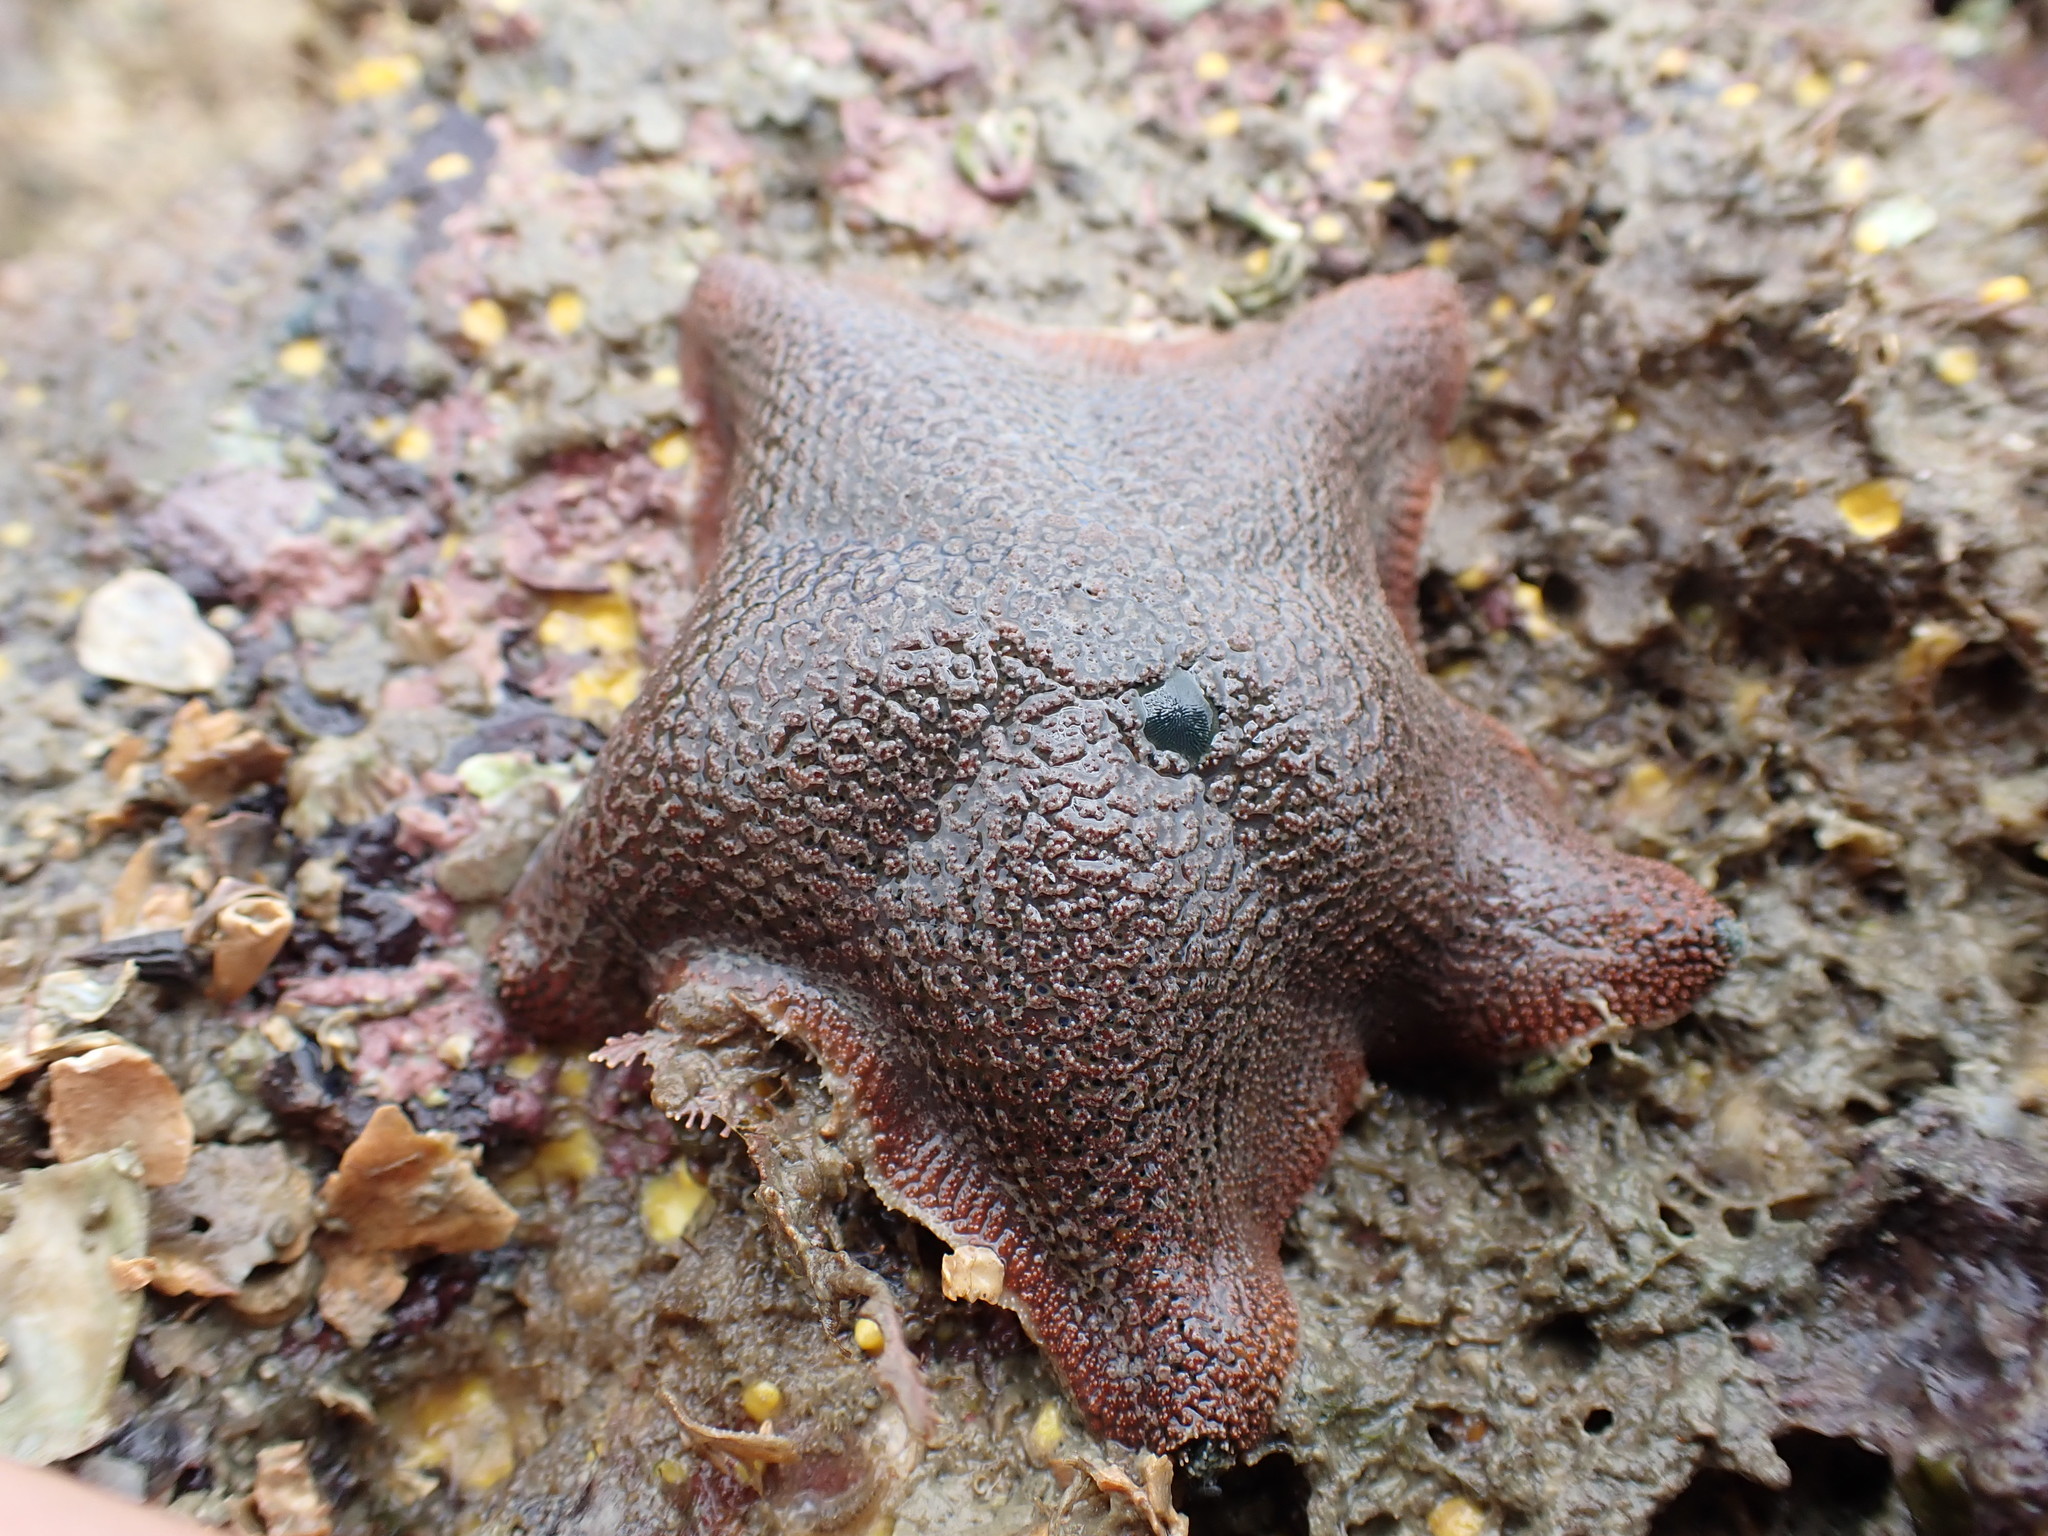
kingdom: Animalia
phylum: Echinodermata
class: Asteroidea
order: Valvatida
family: Asterinidae
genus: Patiriella
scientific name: Patiriella regularis
